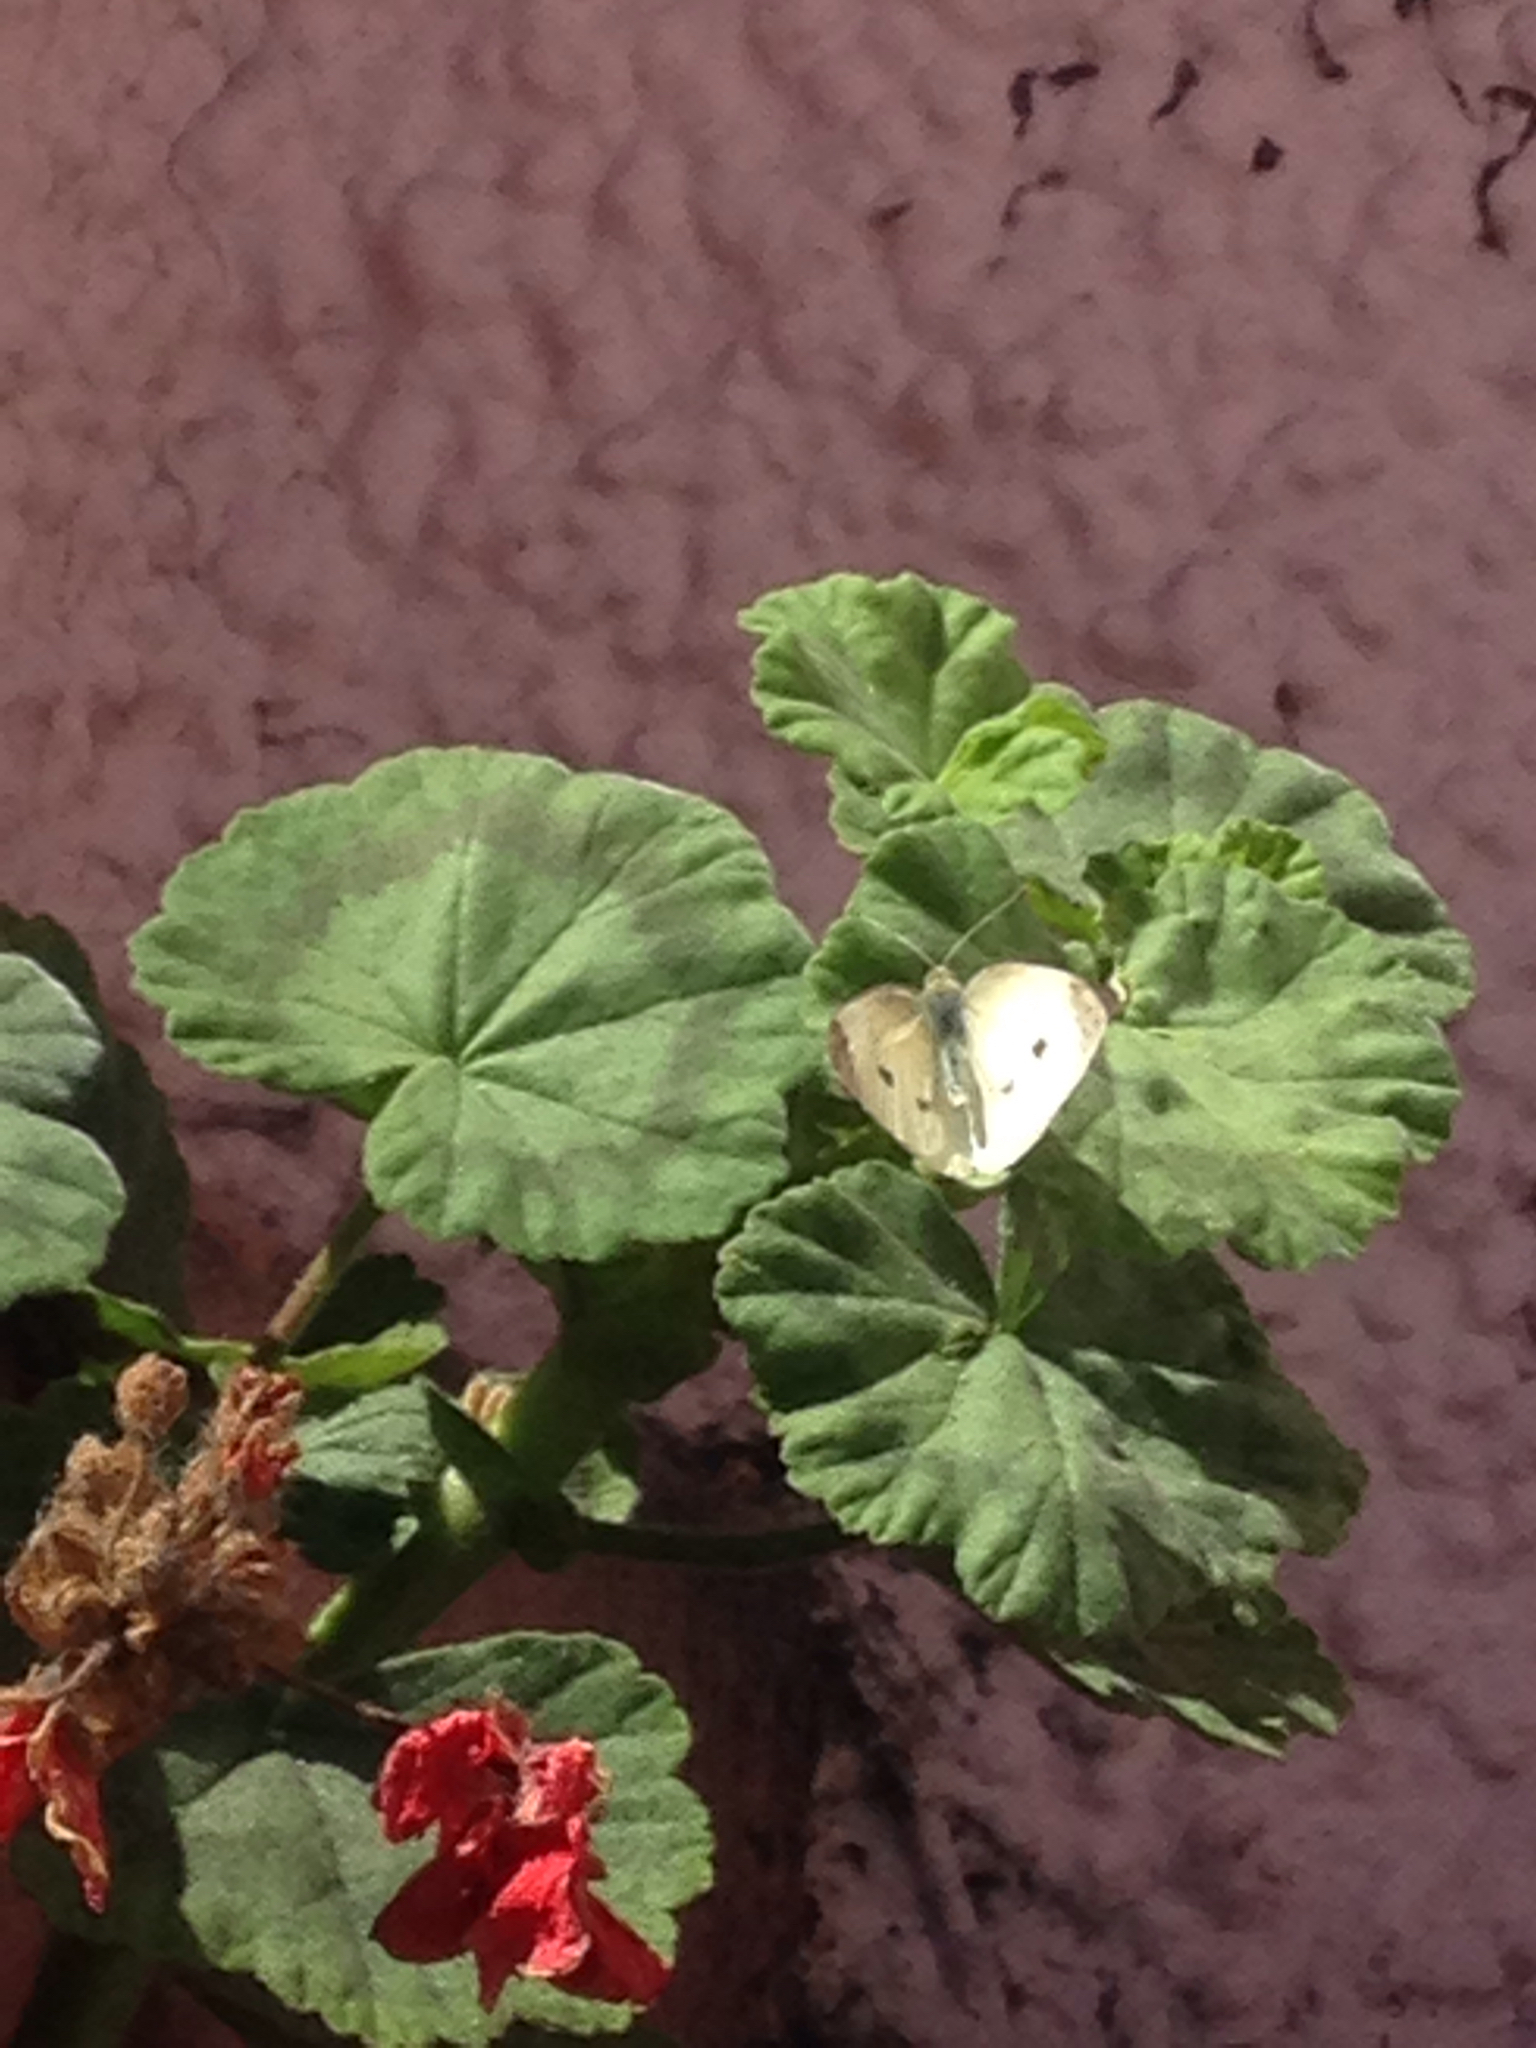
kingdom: Animalia
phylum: Arthropoda
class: Insecta
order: Lepidoptera
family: Pieridae
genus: Pieris
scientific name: Pieris rapae
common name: Small white
